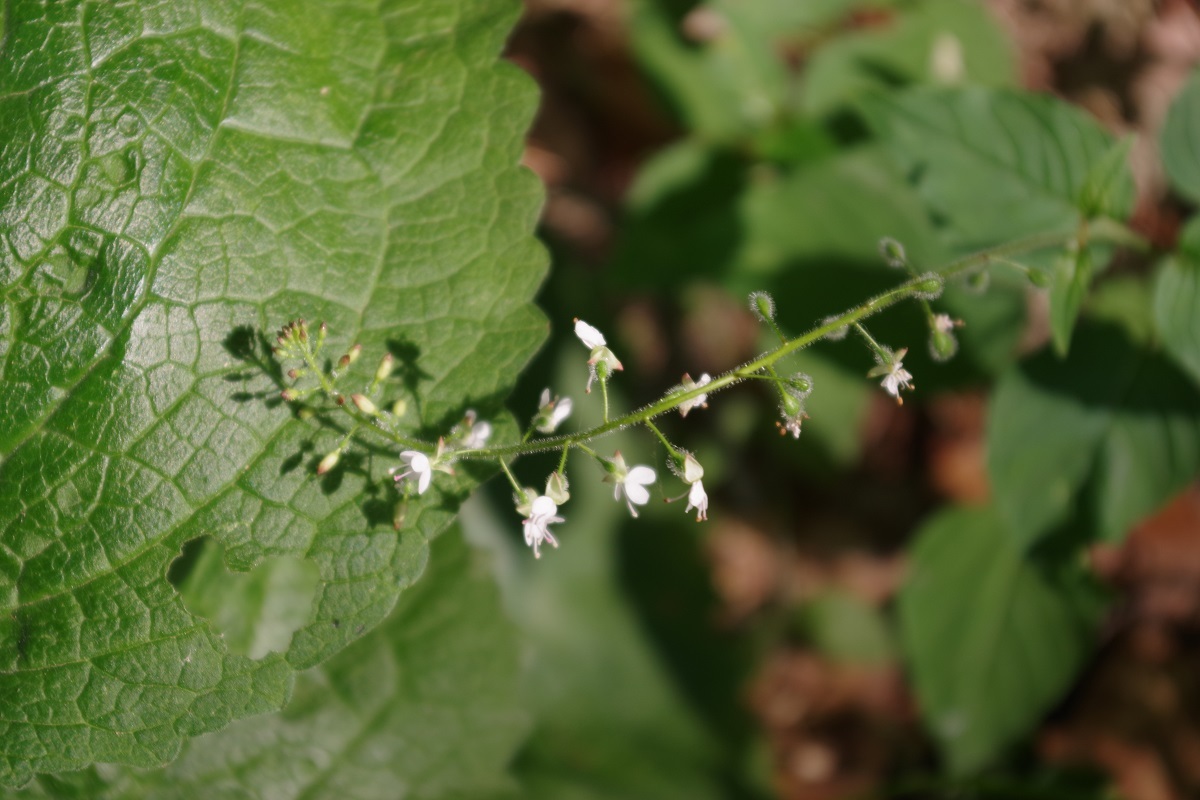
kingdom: Plantae
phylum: Tracheophyta
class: Magnoliopsida
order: Myrtales
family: Onagraceae
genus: Circaea
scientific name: Circaea lutetiana
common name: Enchanter's-nightshade
